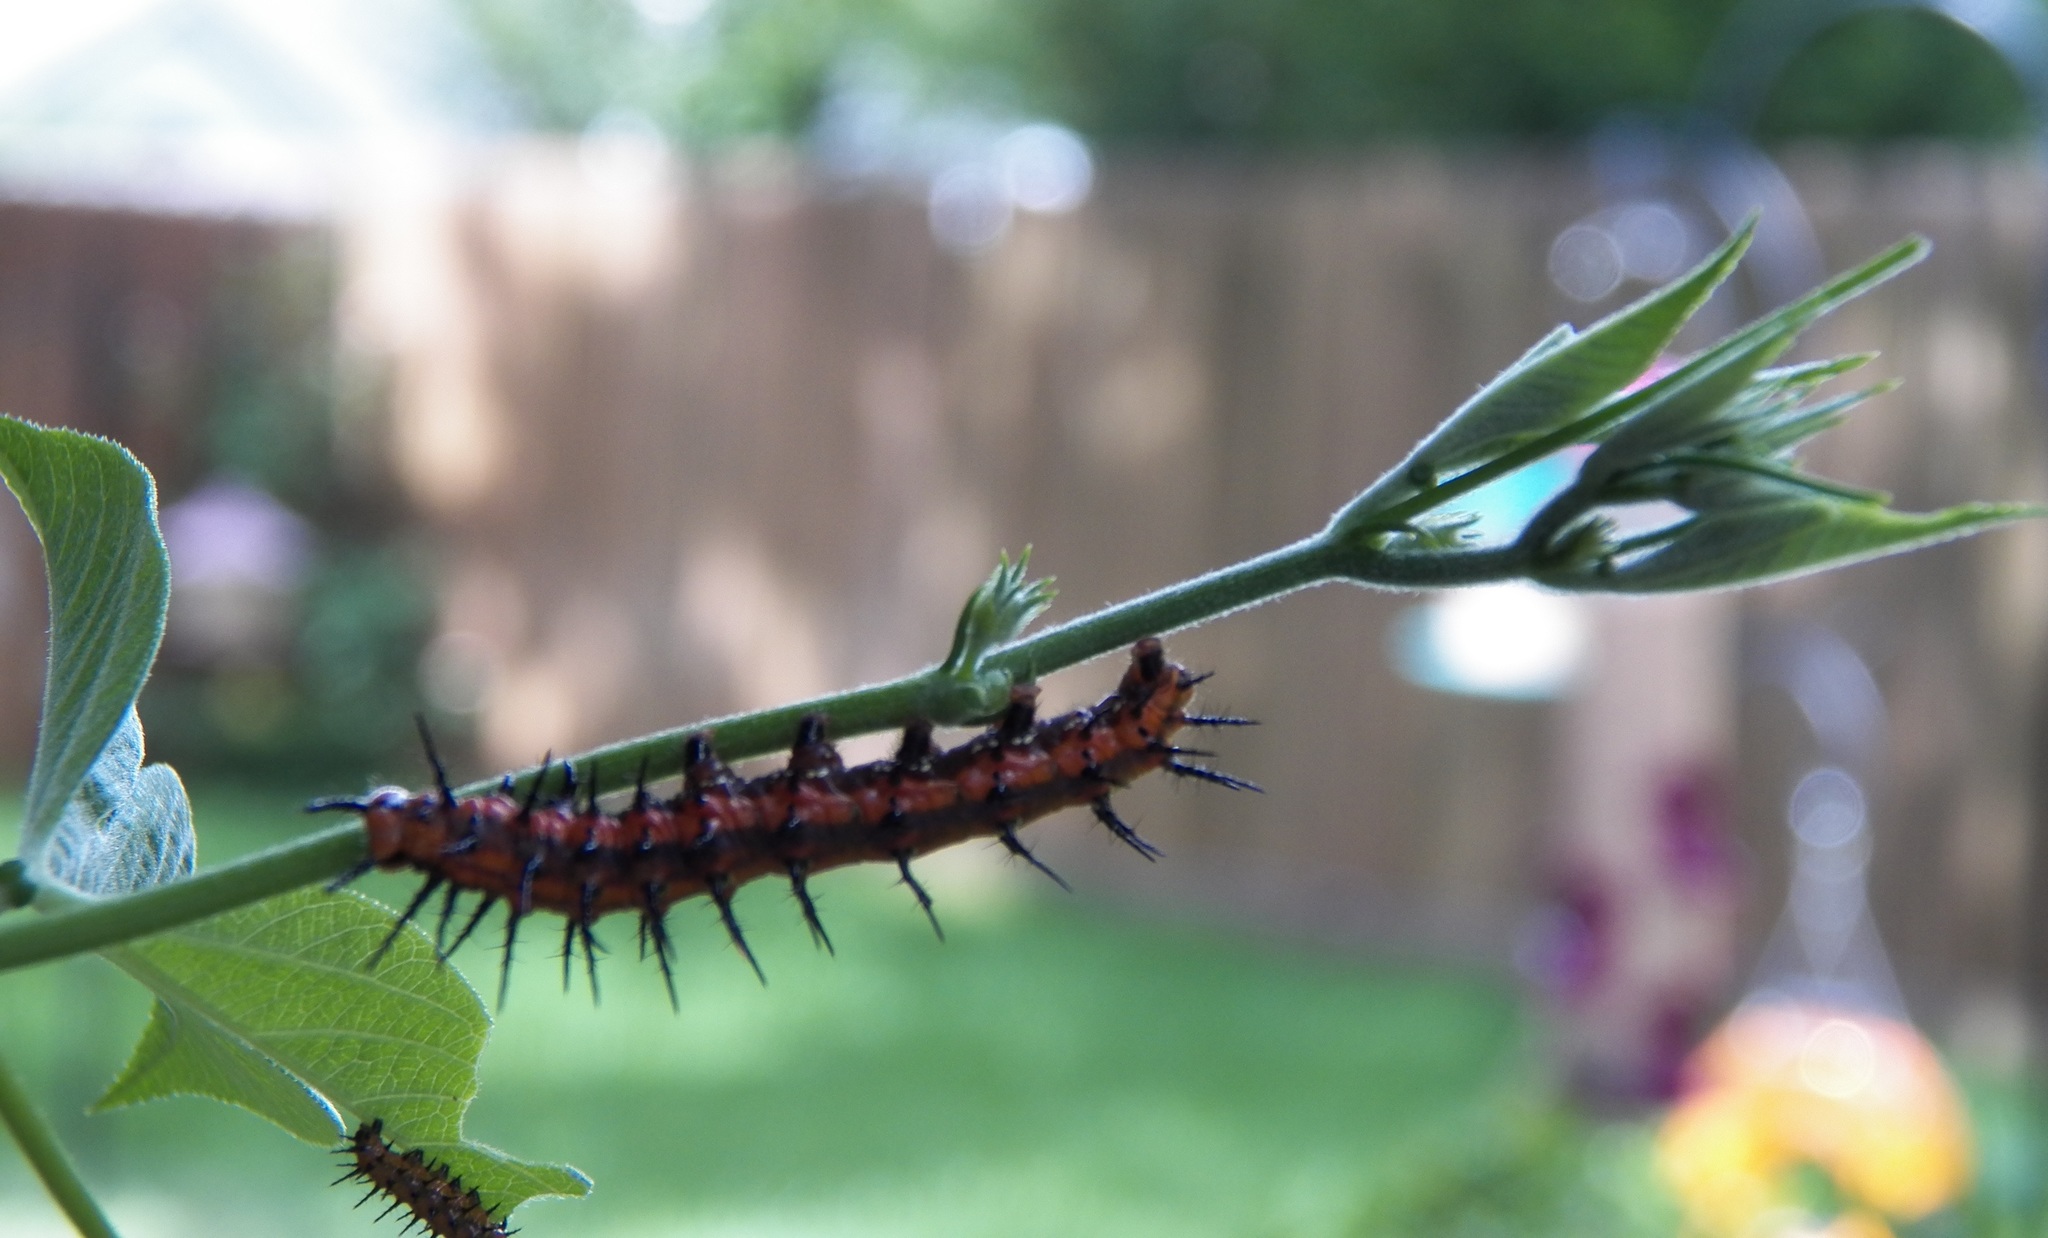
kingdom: Animalia
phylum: Arthropoda
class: Insecta
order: Lepidoptera
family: Nymphalidae
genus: Dione
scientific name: Dione vanillae
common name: Gulf fritillary
